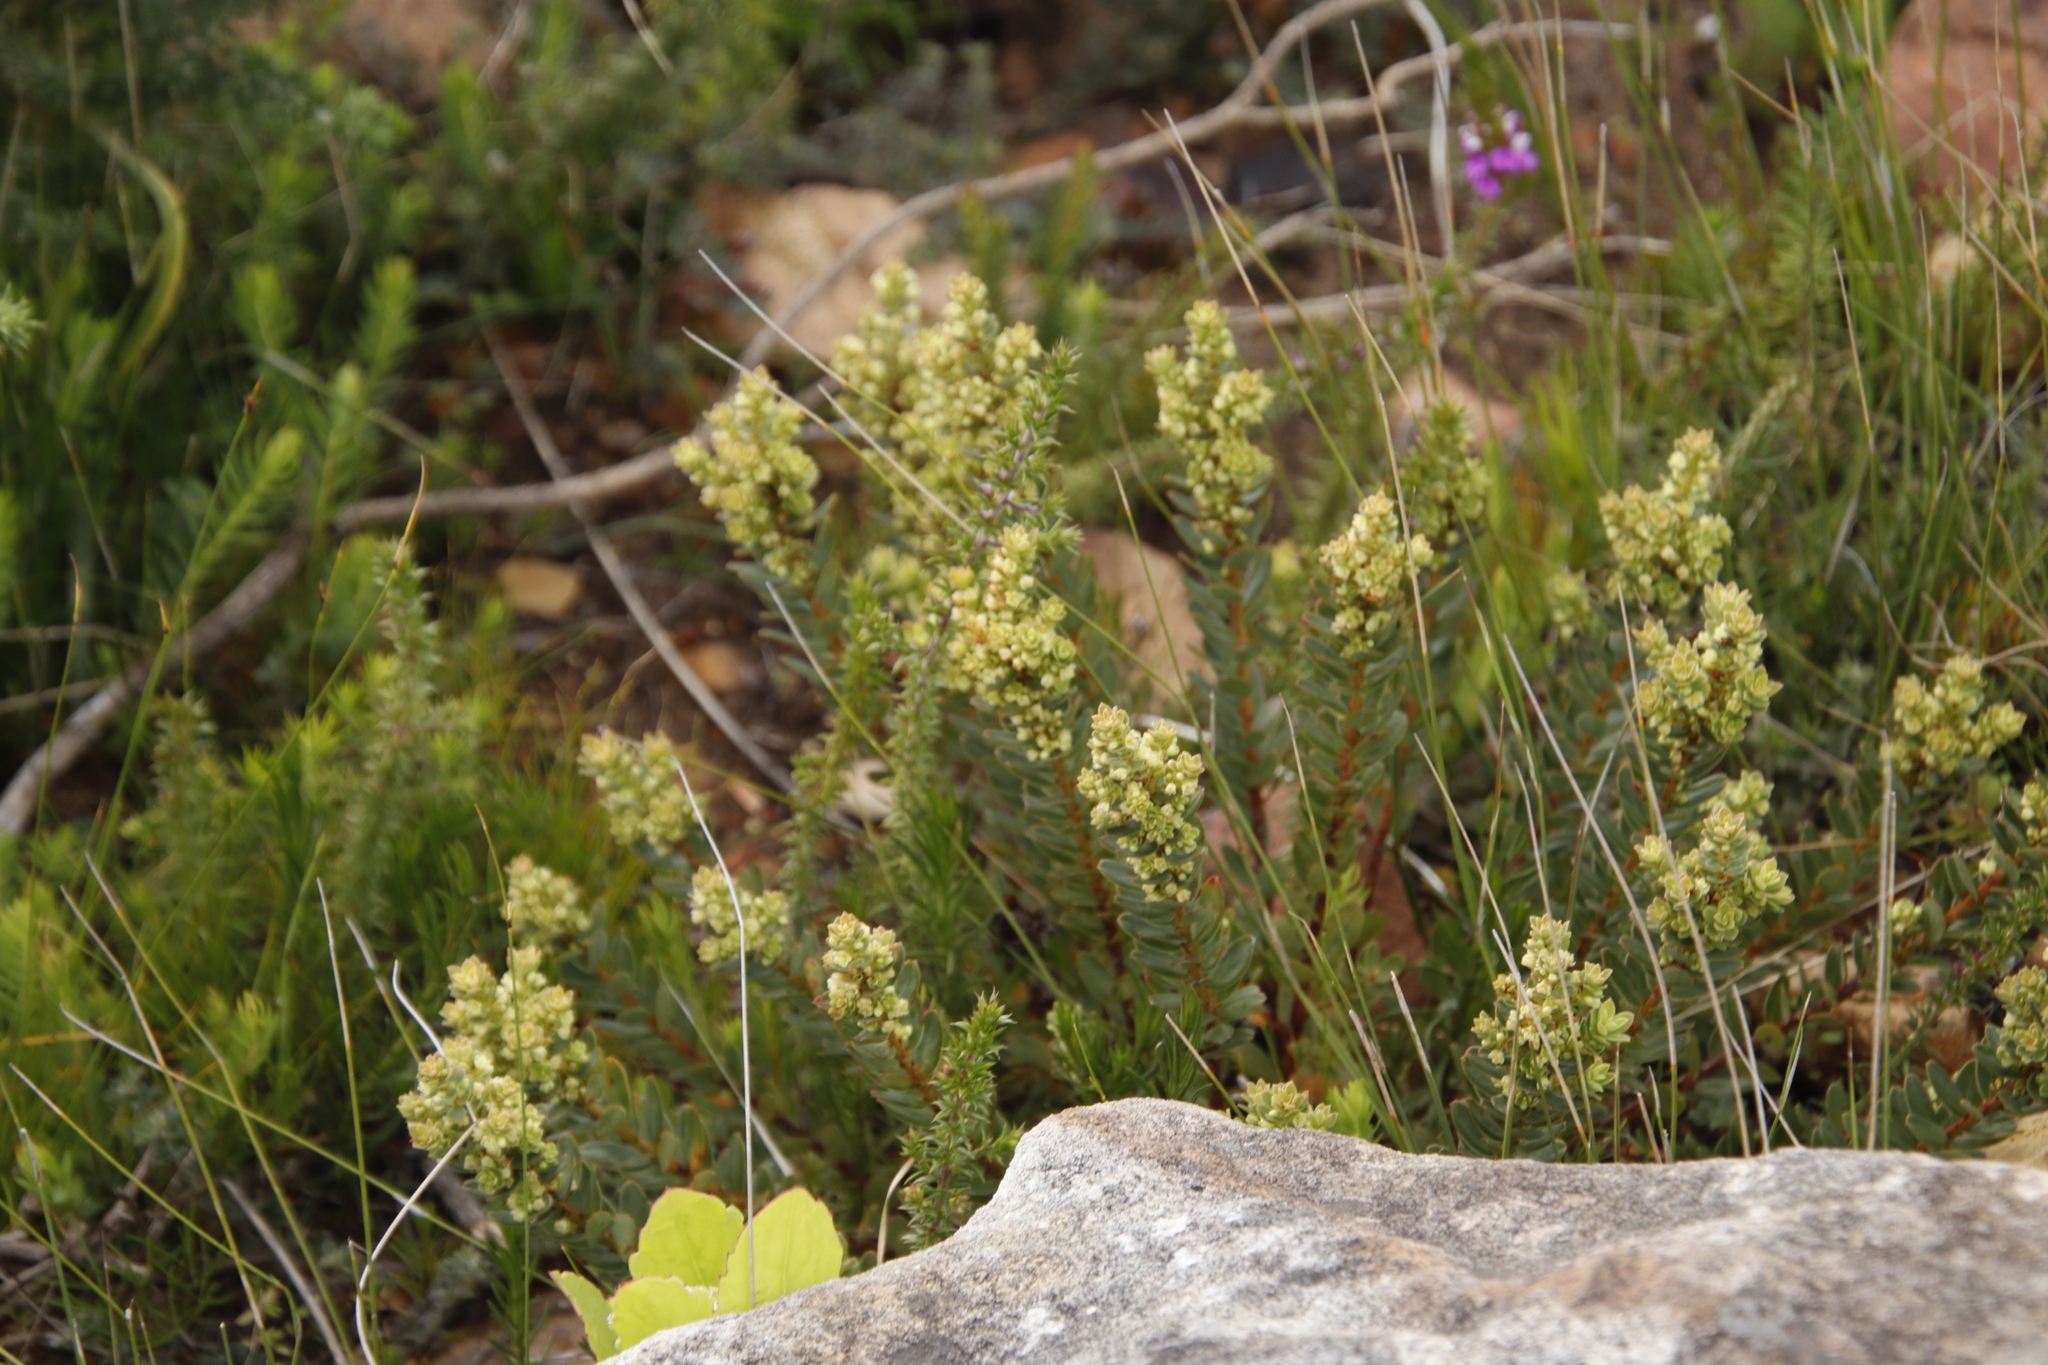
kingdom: Plantae
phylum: Tracheophyta
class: Magnoliopsida
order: Malpighiales
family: Peraceae
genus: Clutia
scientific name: Clutia alaternoides
